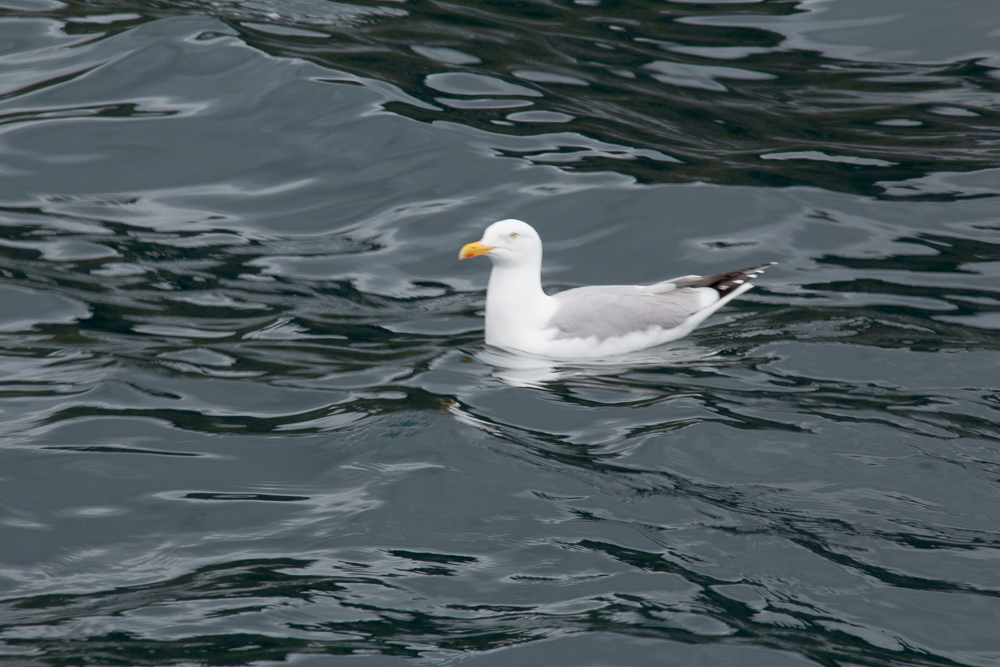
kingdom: Animalia
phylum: Chordata
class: Aves
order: Charadriiformes
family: Laridae
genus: Larus
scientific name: Larus argentatus
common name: Herring gull
